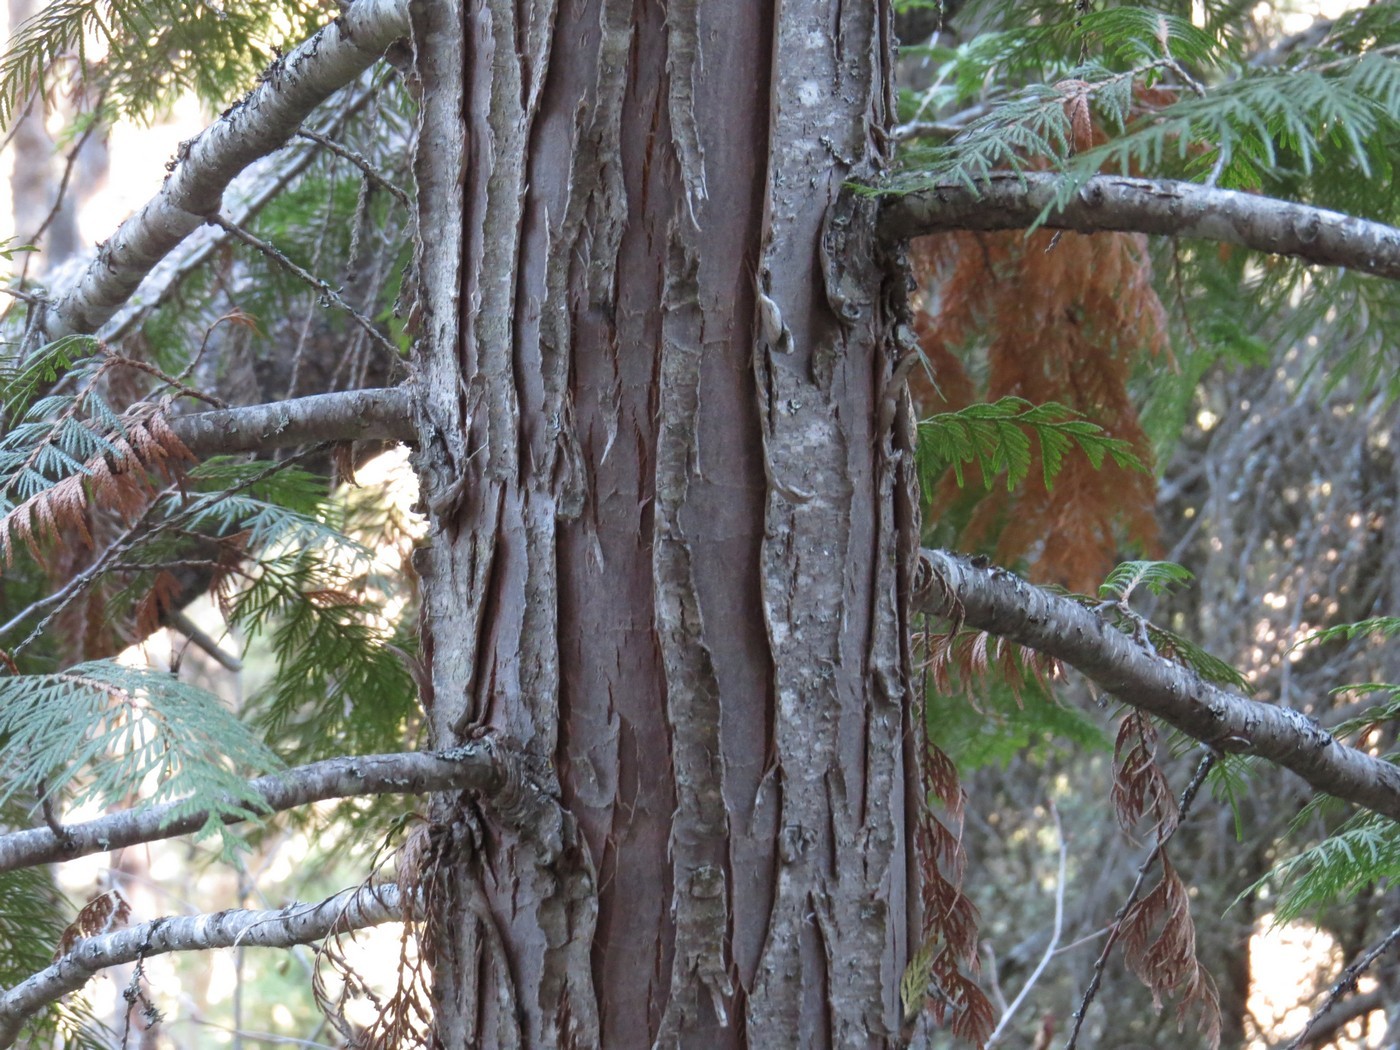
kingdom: Plantae
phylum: Tracheophyta
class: Pinopsida
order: Pinales
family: Cupressaceae
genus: Thuja
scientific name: Thuja plicata
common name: Western red-cedar
